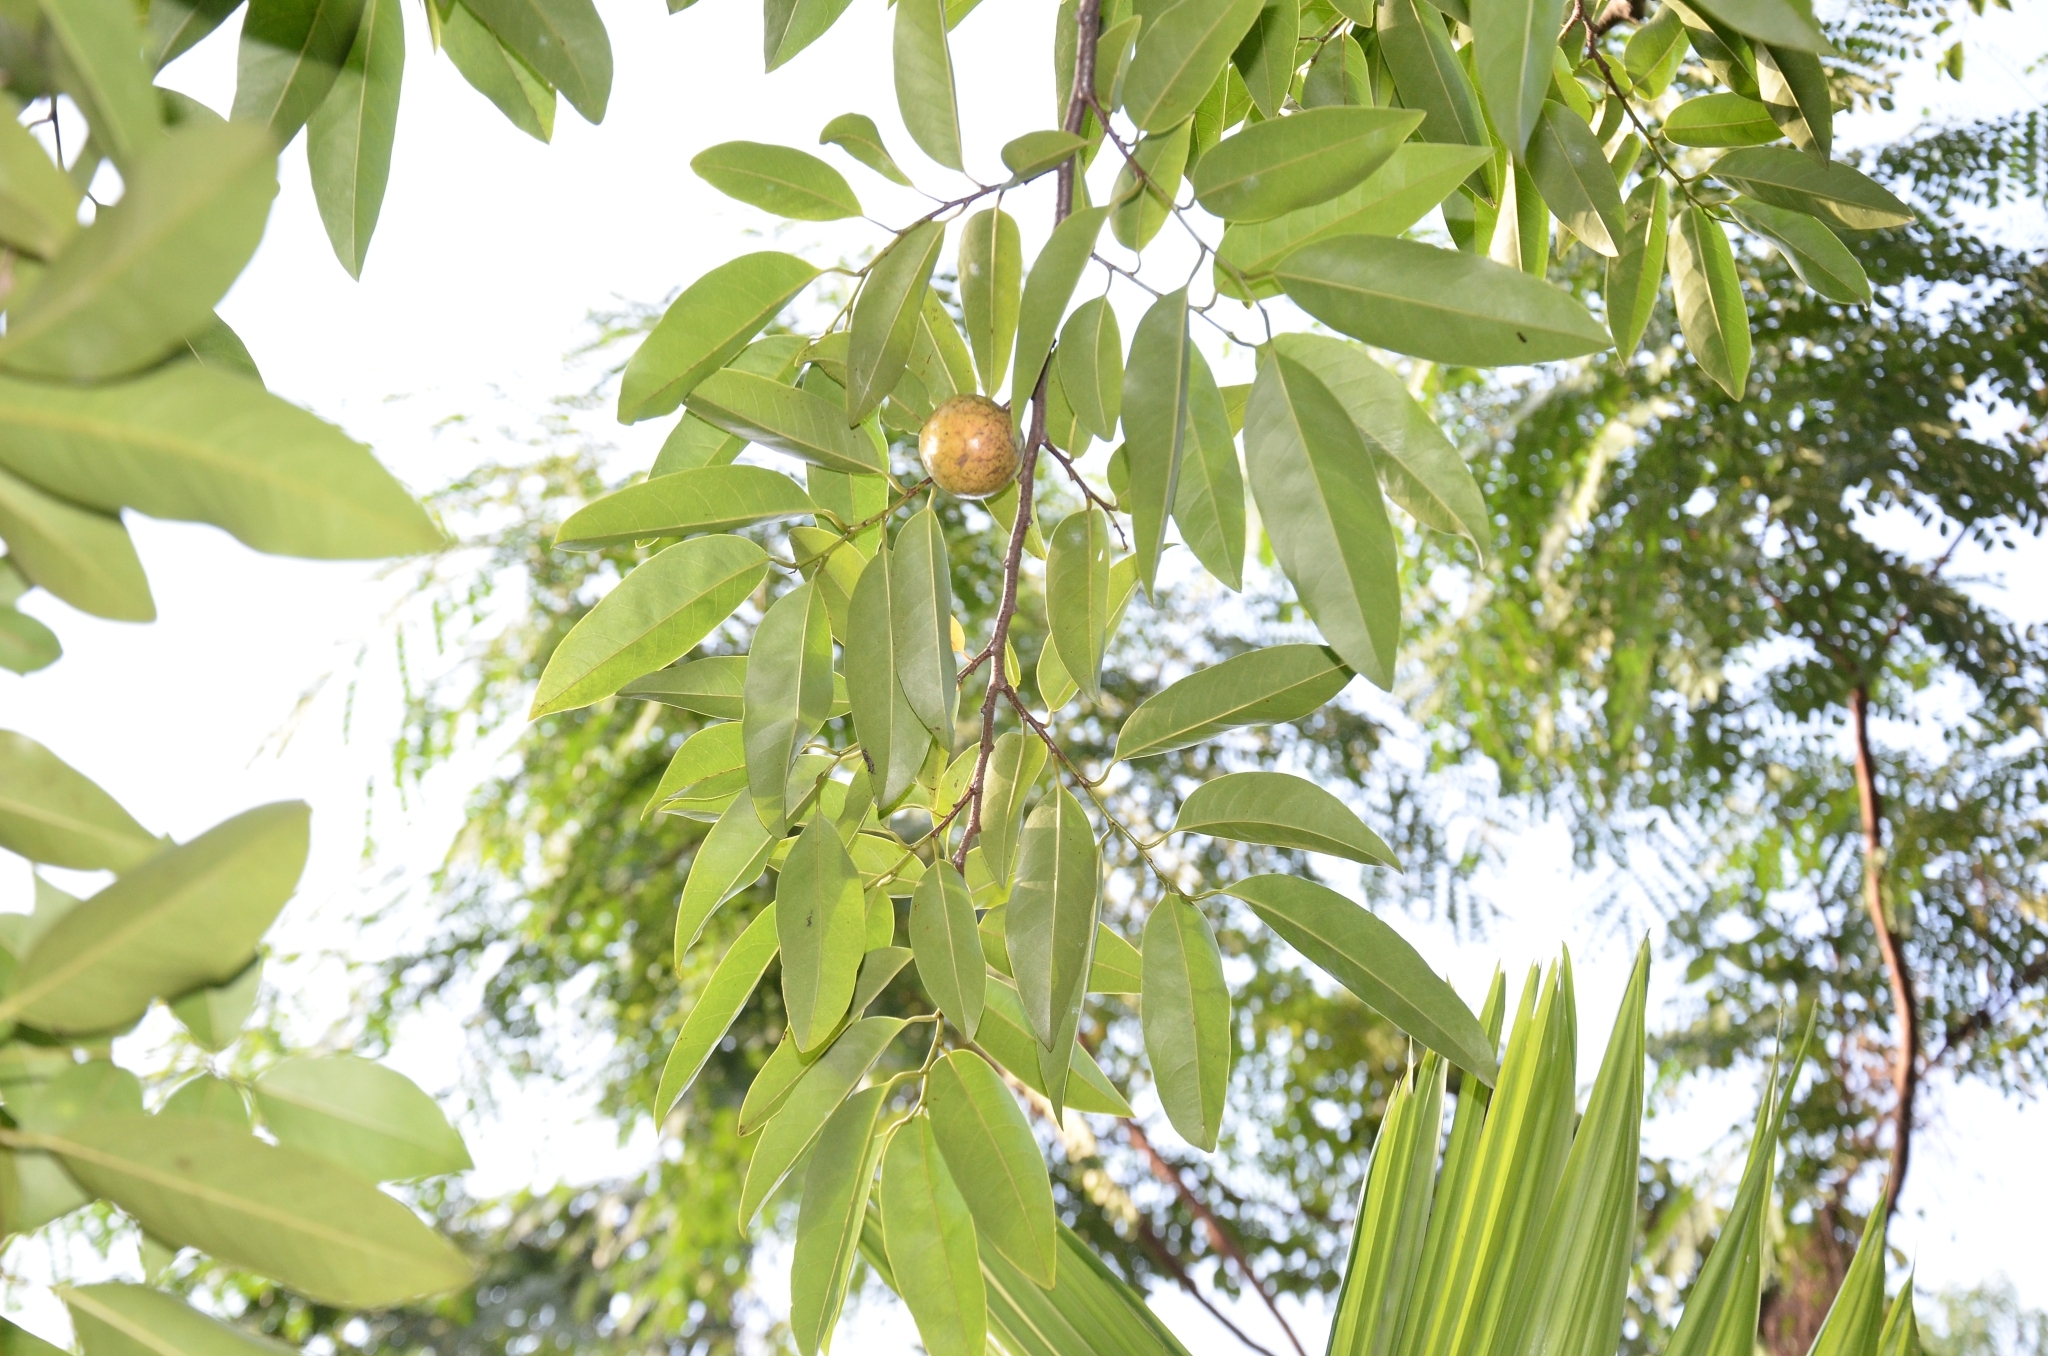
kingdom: Plantae
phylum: Tracheophyta
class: Magnoliopsida
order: Magnoliales
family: Annonaceae
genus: Annona
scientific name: Annona glabra
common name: Monkey apple
